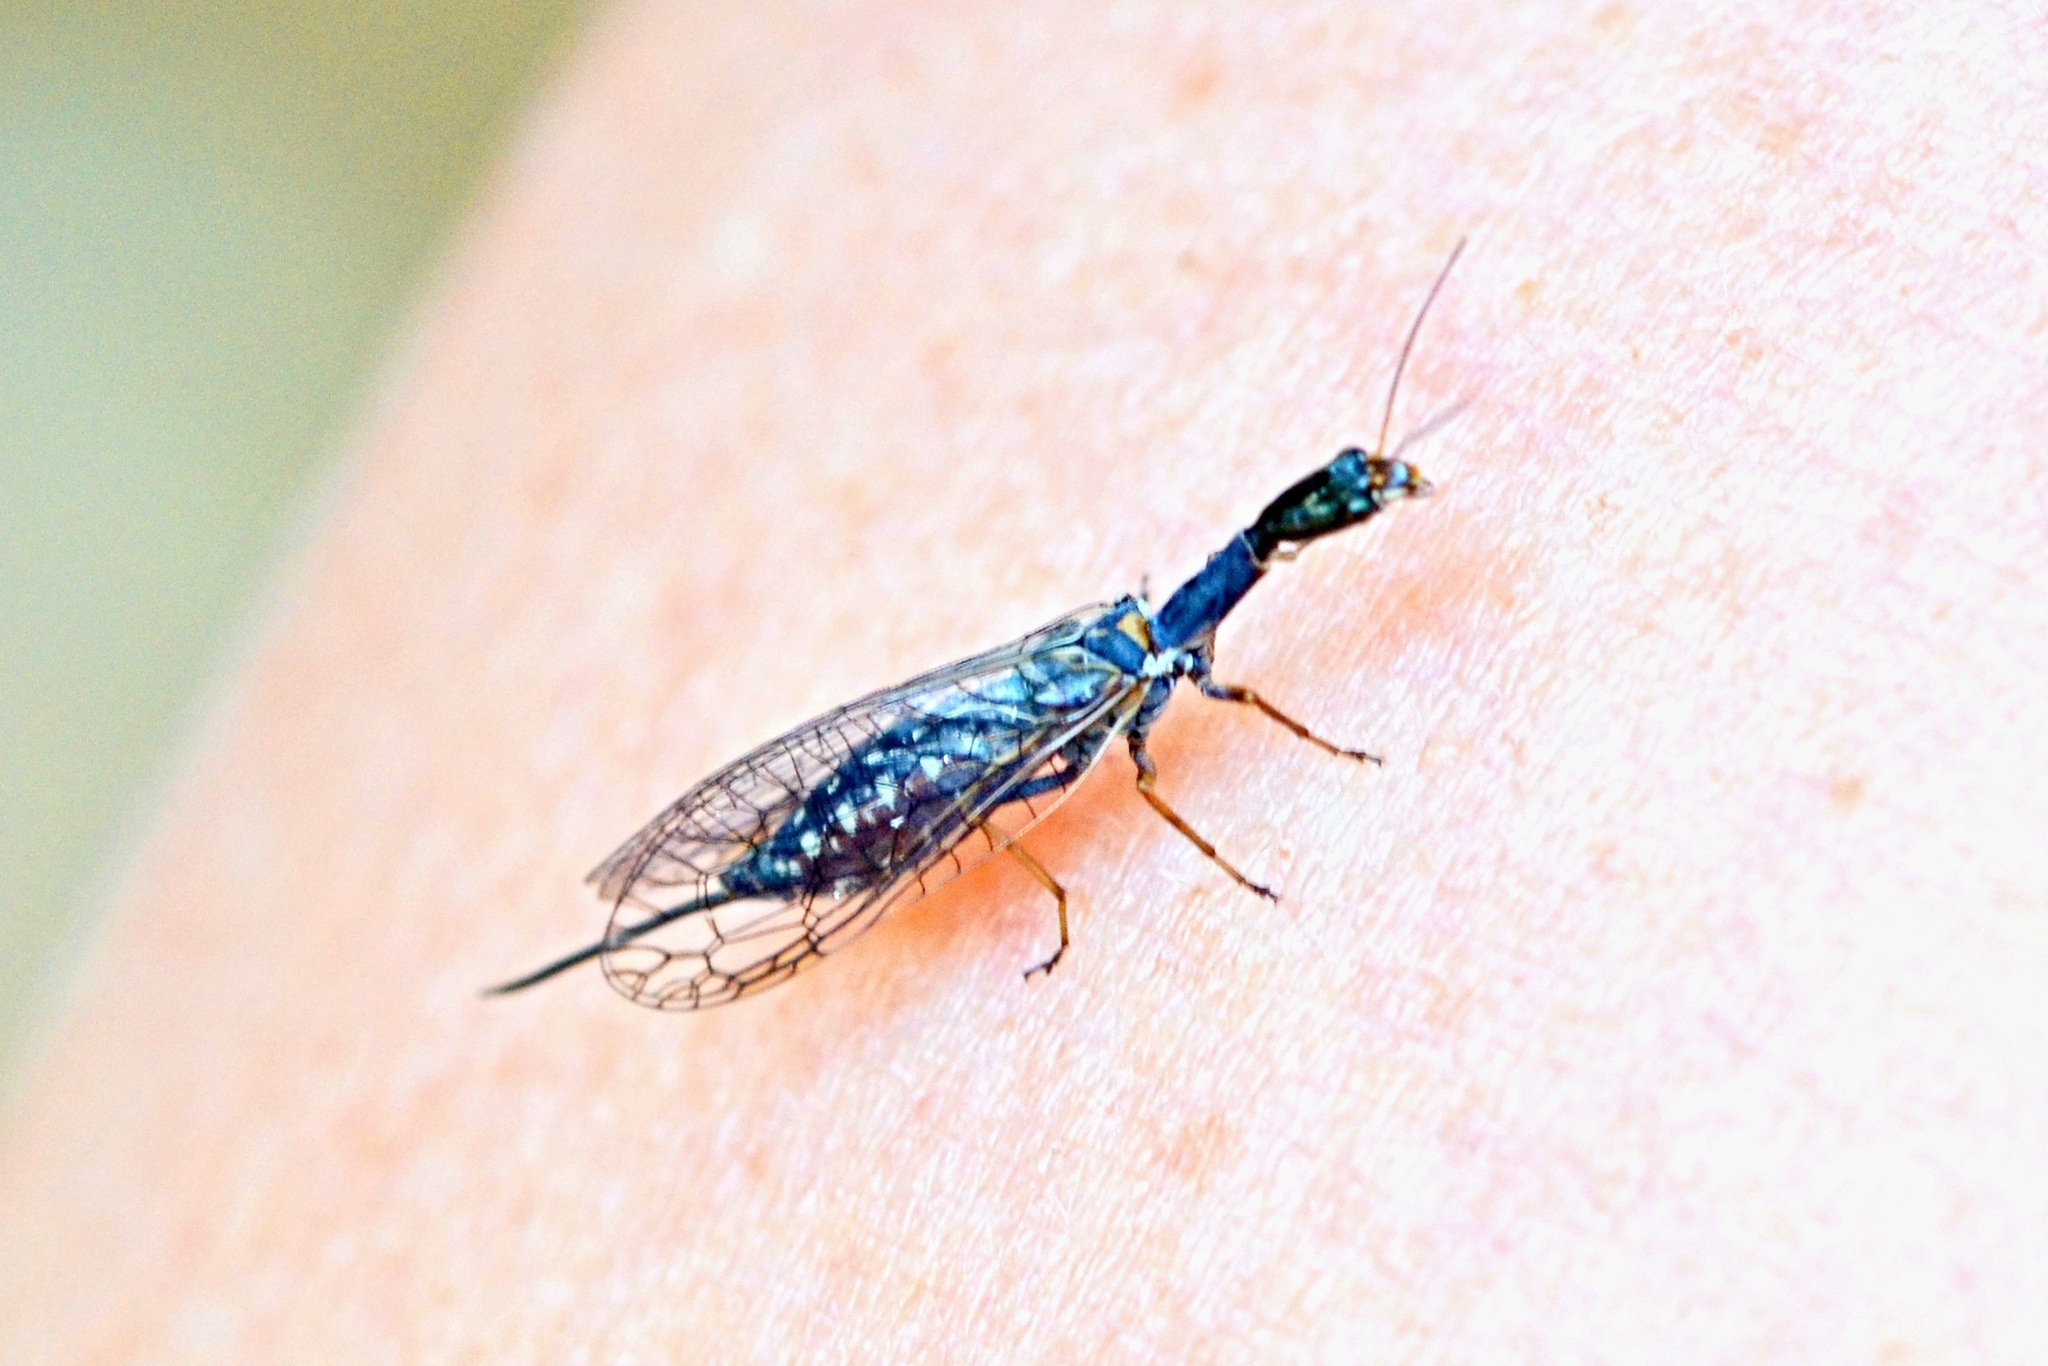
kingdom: Animalia
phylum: Arthropoda
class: Insecta
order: Raphidioptera
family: Raphidiidae
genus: Xanthostigma
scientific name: Xanthostigma xanthostigma
